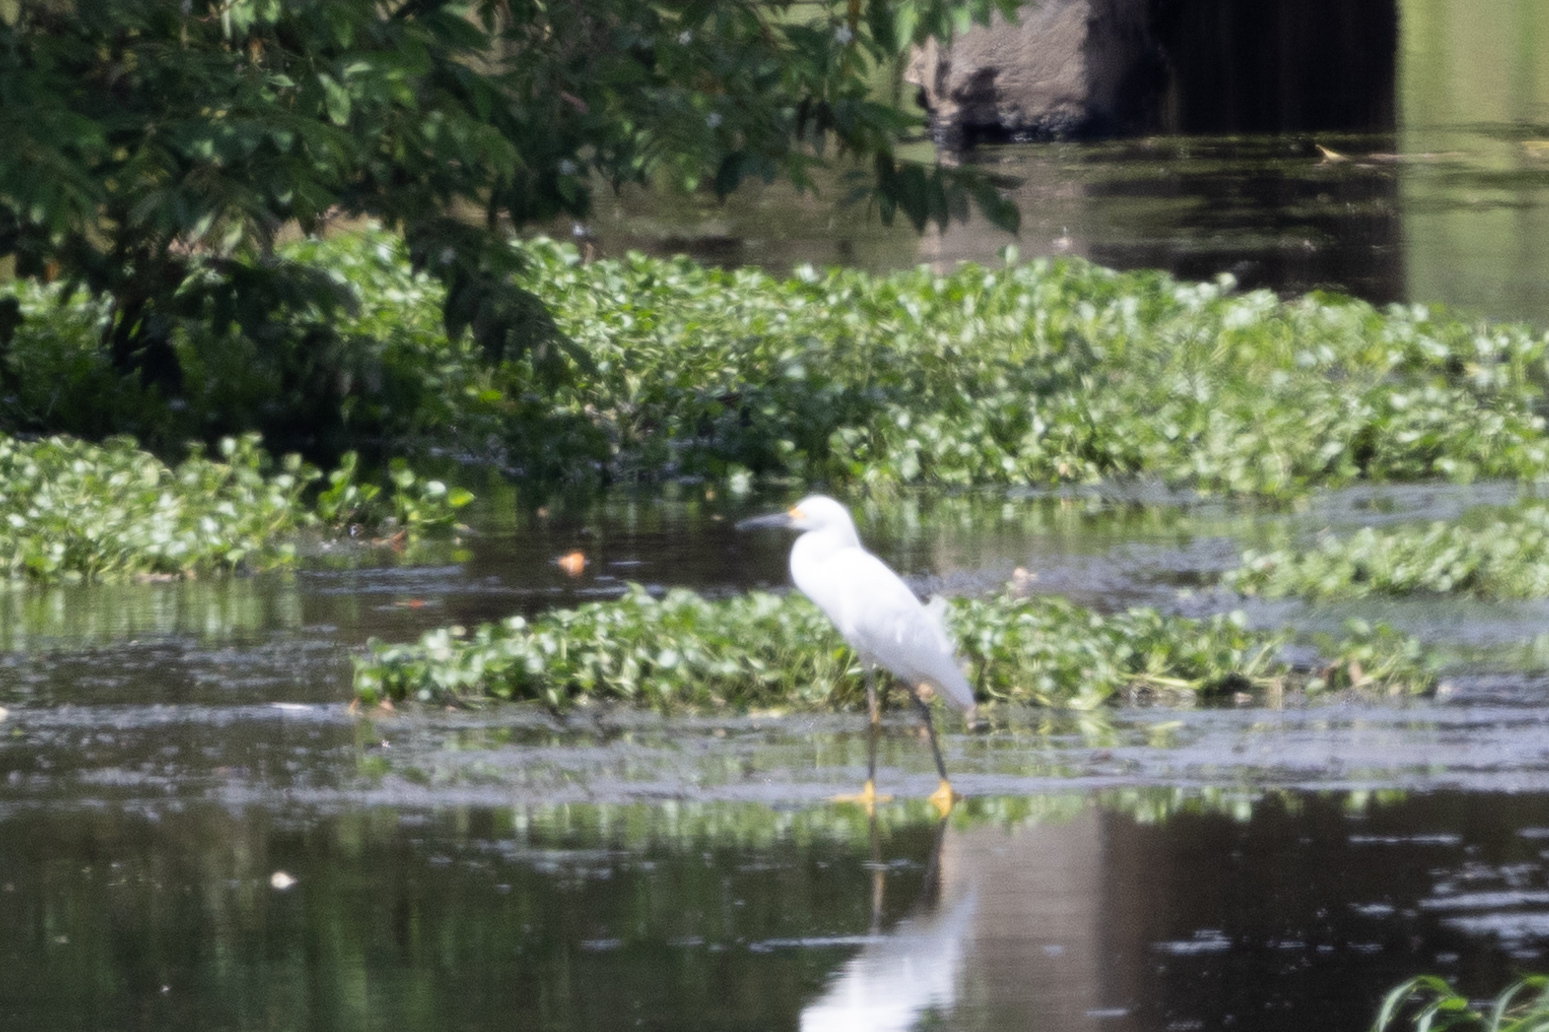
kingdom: Animalia
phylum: Chordata
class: Aves
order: Pelecaniformes
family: Ardeidae
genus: Egretta
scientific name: Egretta thula
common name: Snowy egret
